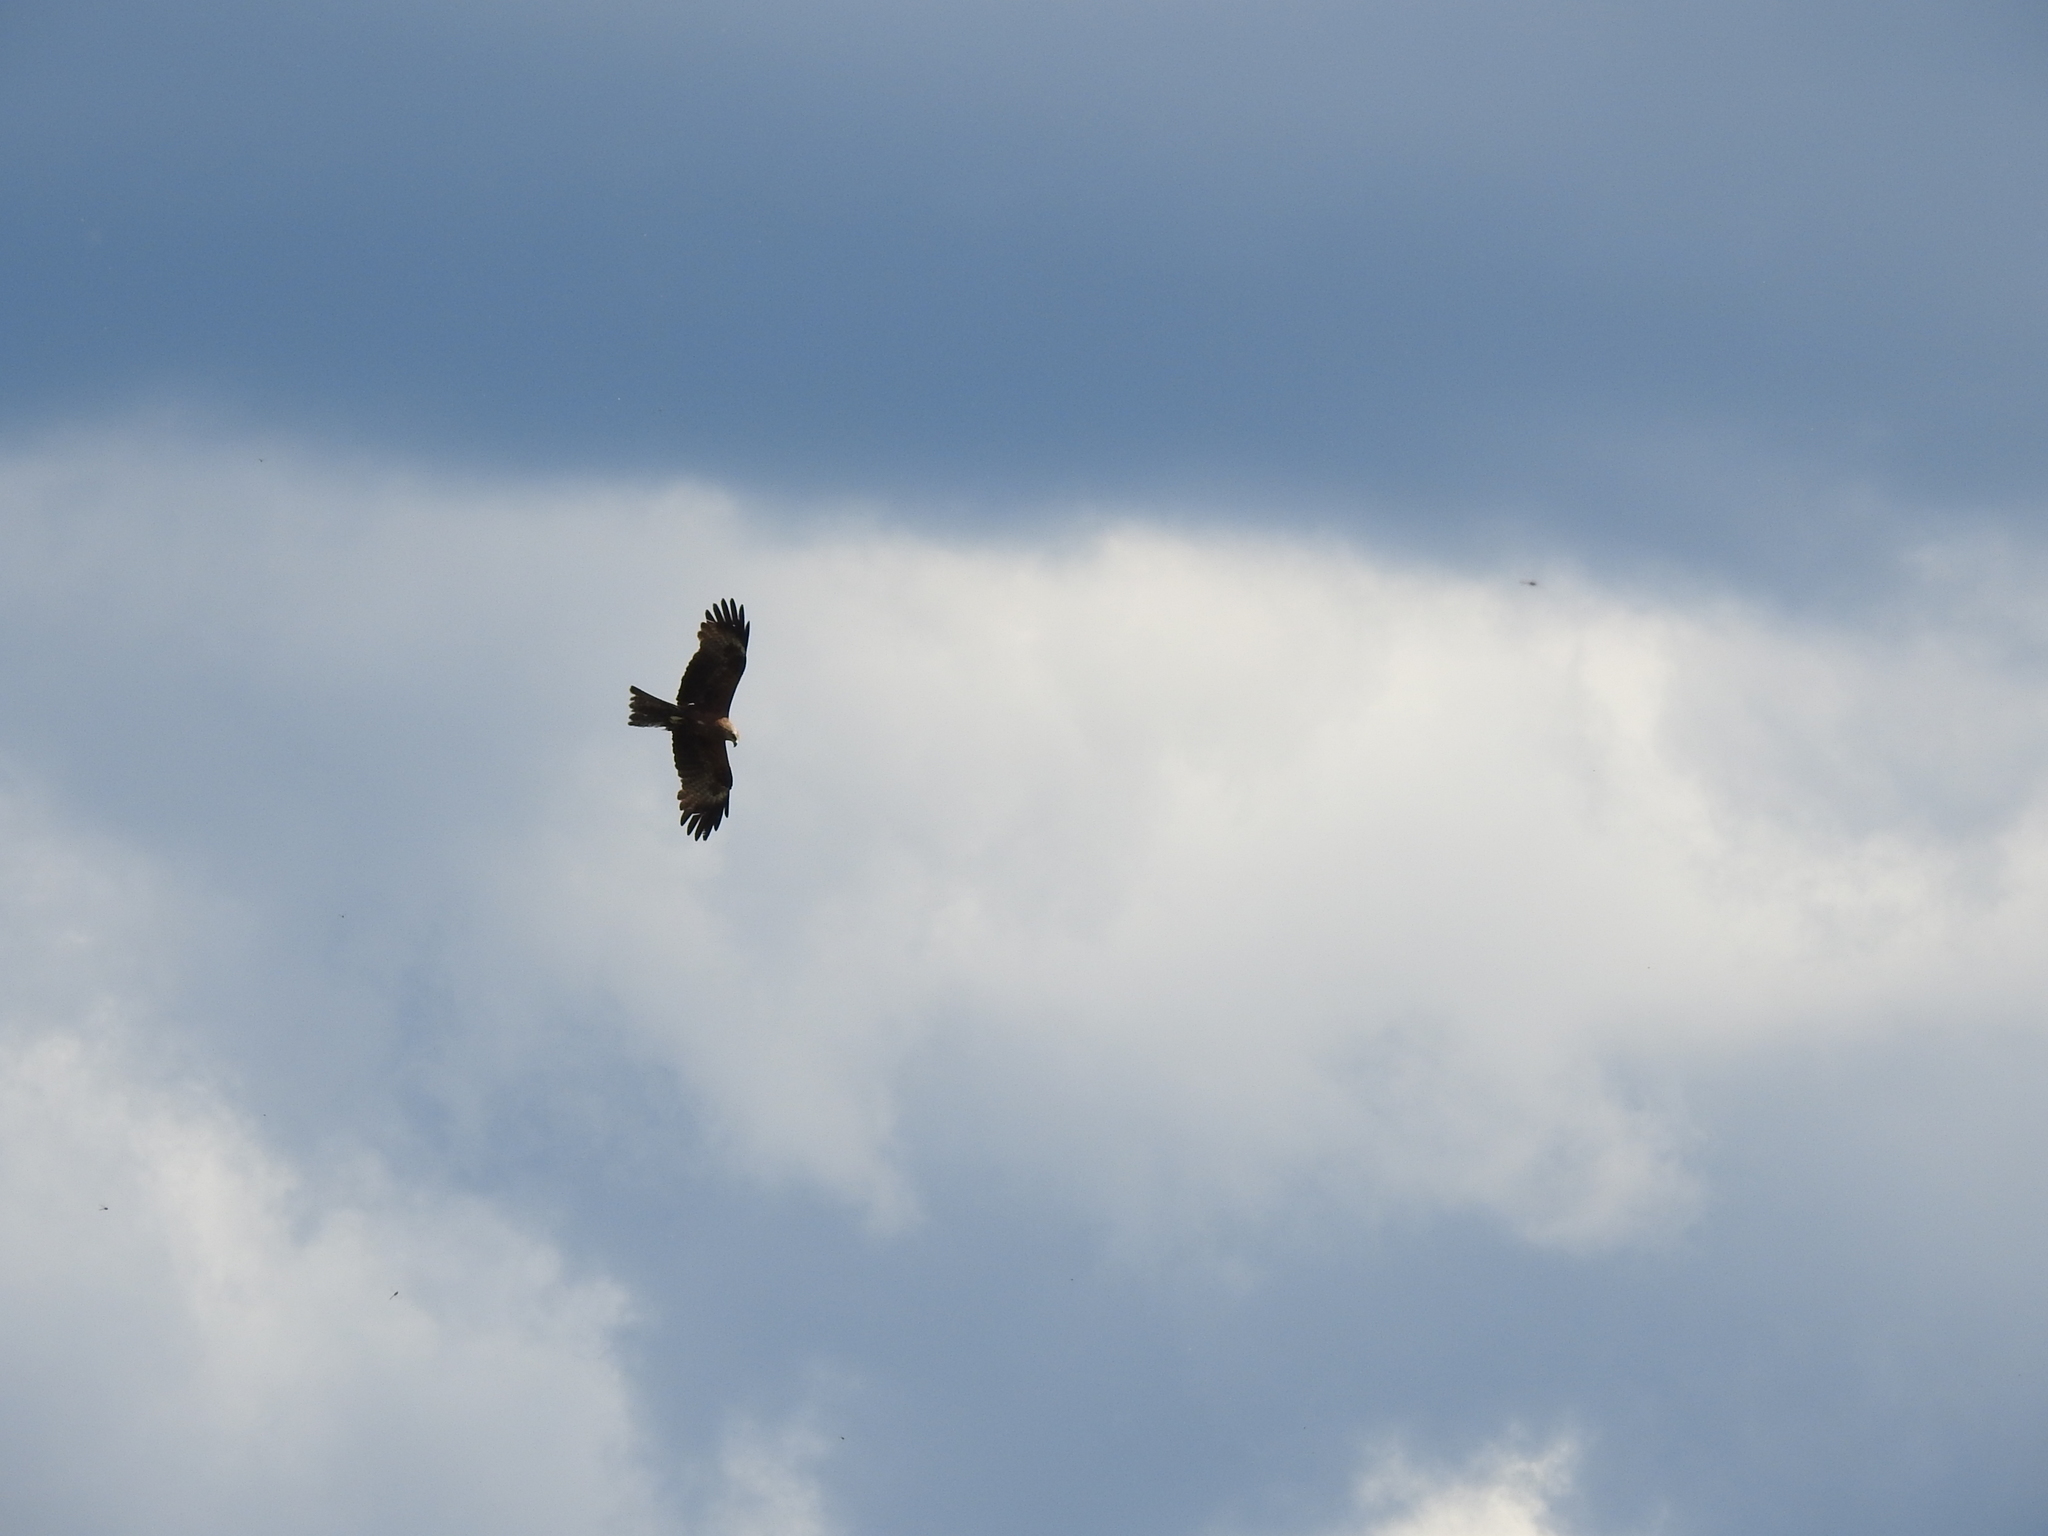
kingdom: Animalia
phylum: Chordata
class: Aves
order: Accipitriformes
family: Accipitridae
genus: Milvus
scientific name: Milvus migrans
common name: Black kite
